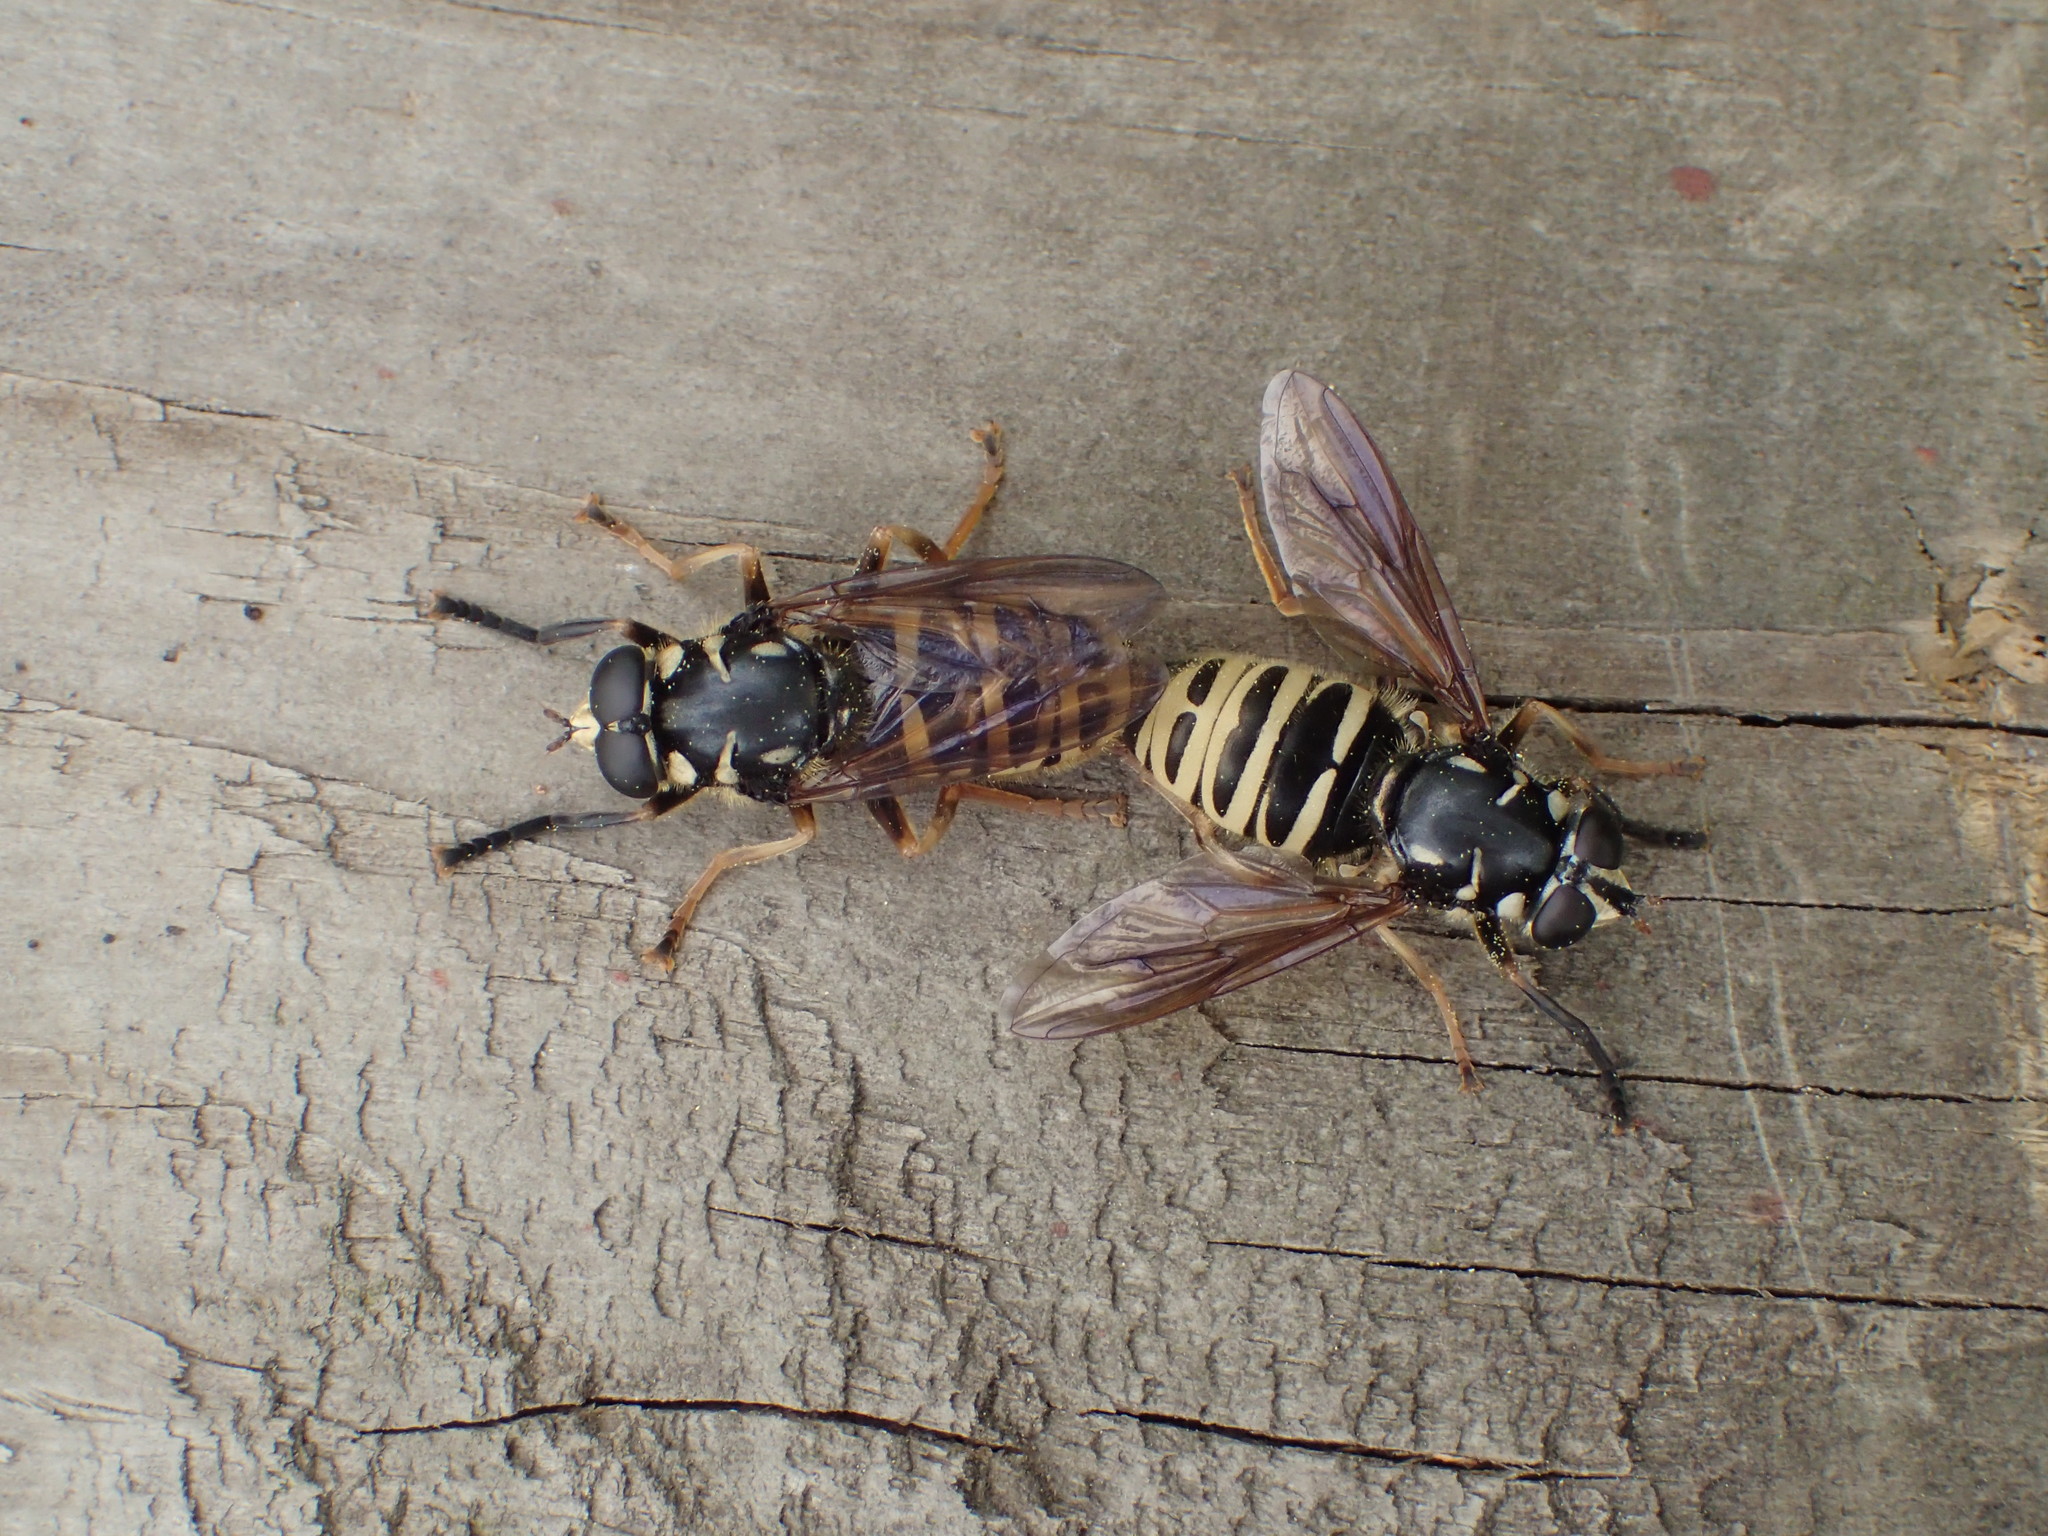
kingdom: Animalia
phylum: Arthropoda
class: Insecta
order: Diptera
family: Syrphidae
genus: Temnostoma
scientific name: Temnostoma excentricum
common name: Black-spotted falsehorn
